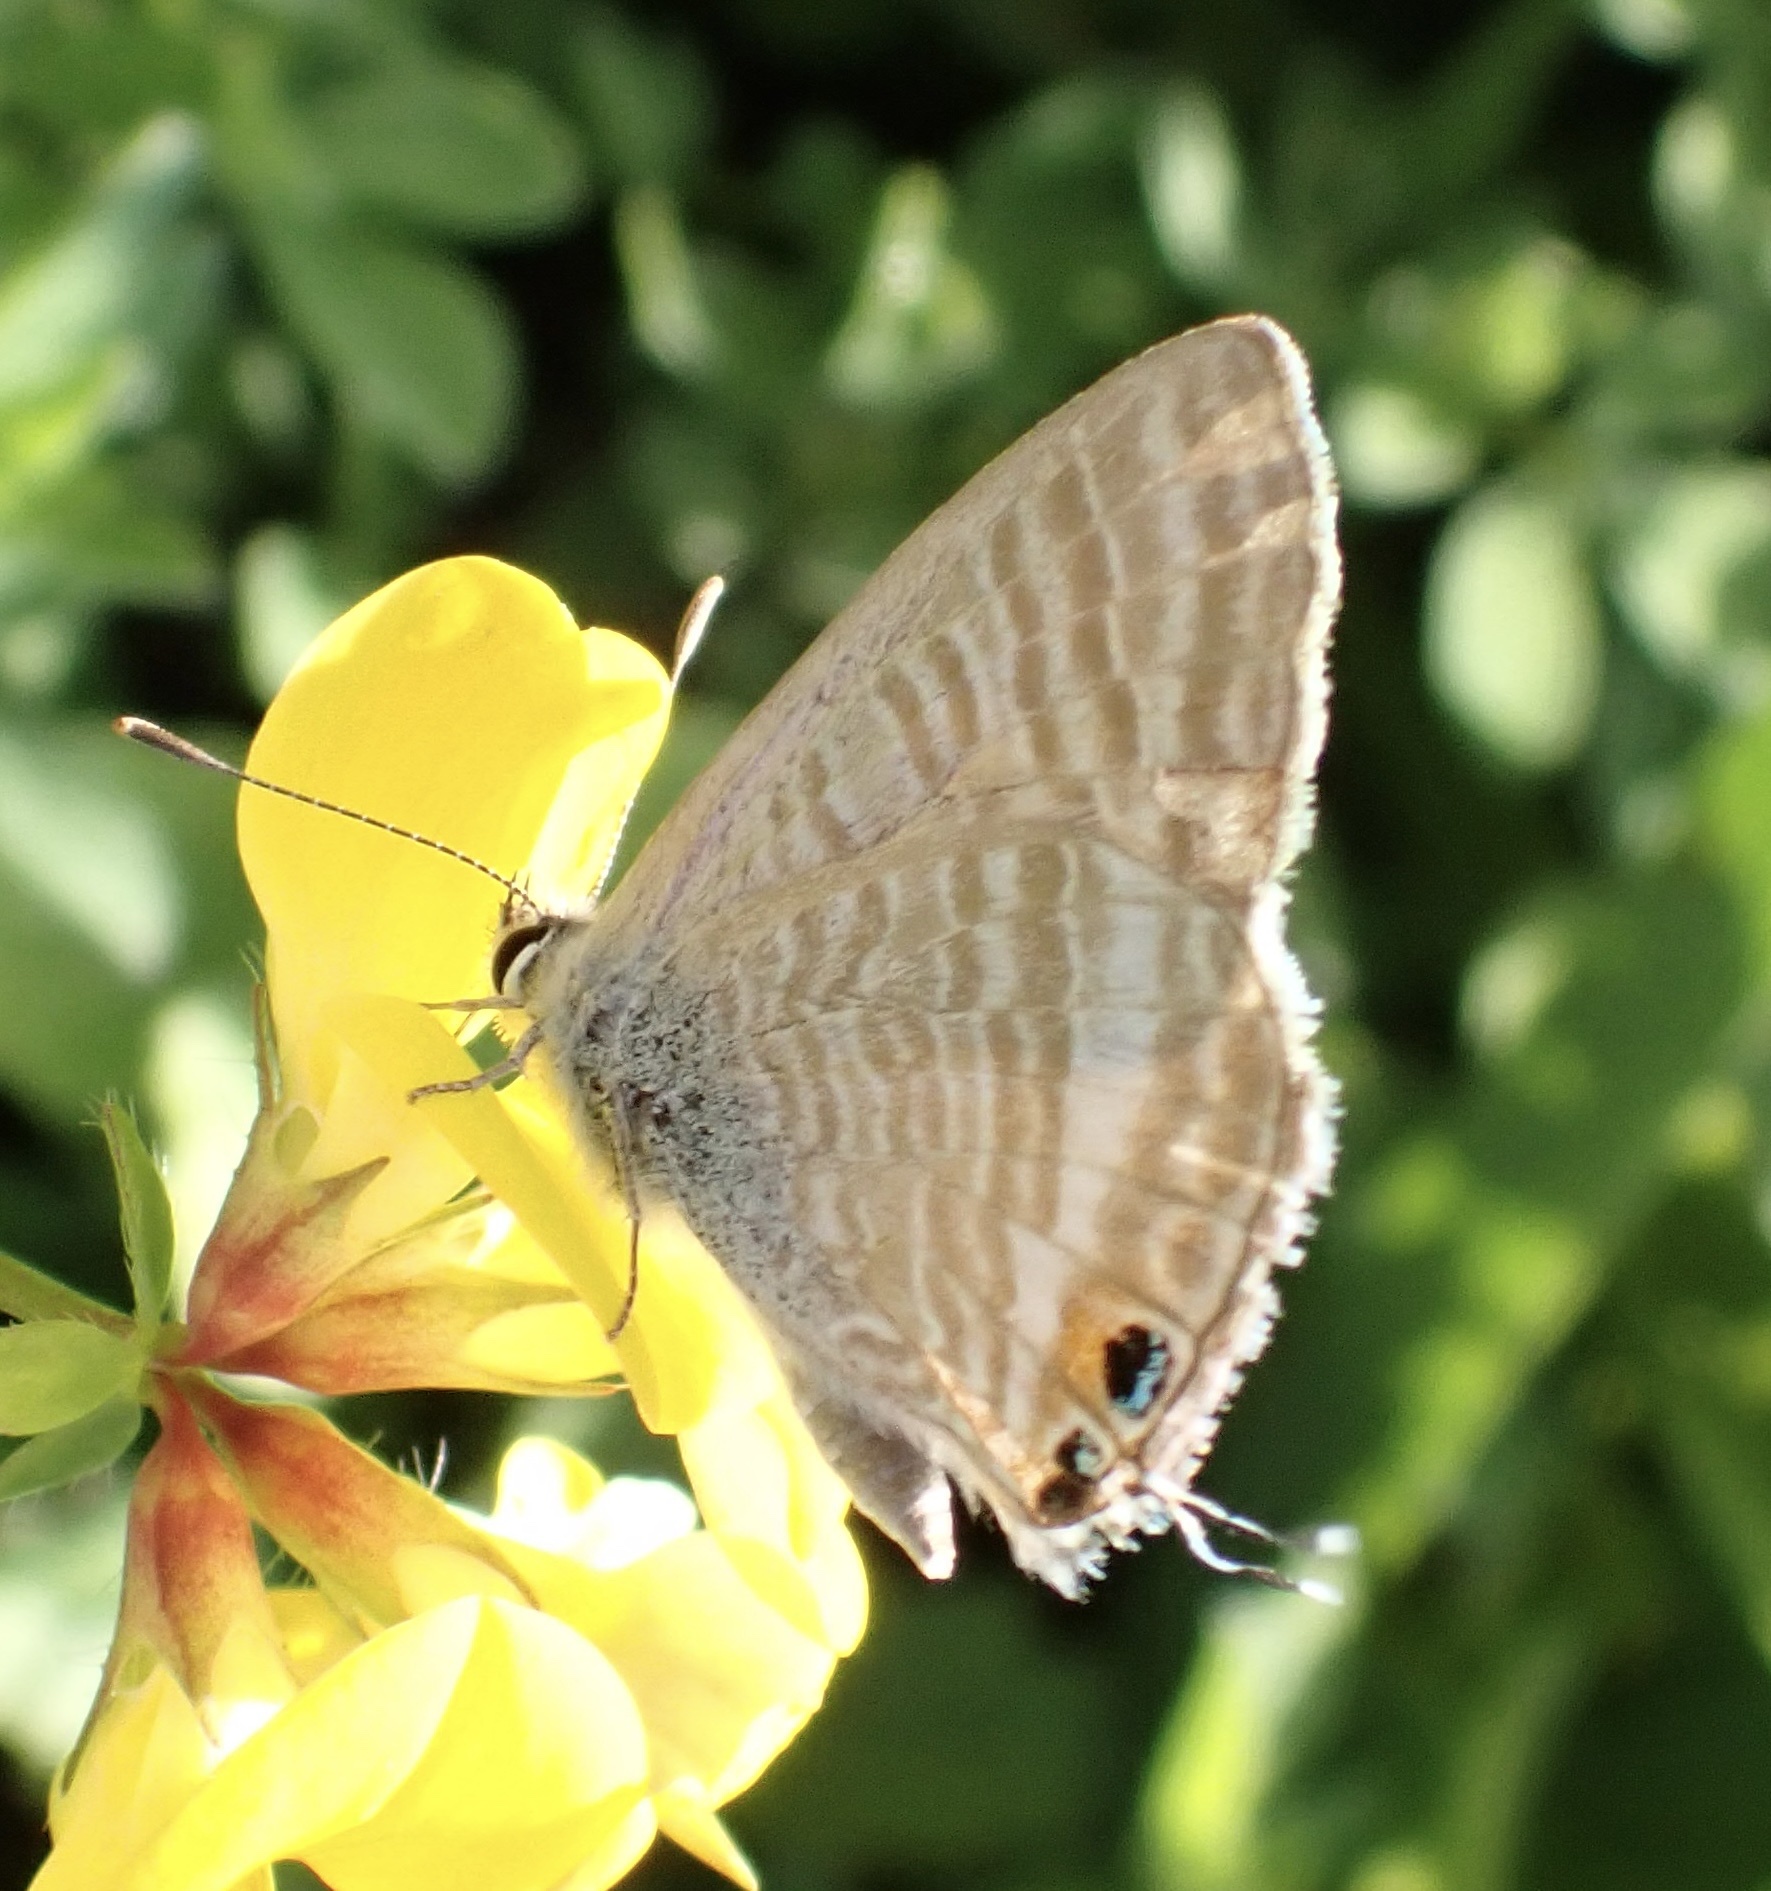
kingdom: Animalia
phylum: Arthropoda
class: Insecta
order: Lepidoptera
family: Lycaenidae
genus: Lampides
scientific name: Lampides boeticus
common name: Long-tailed blue
